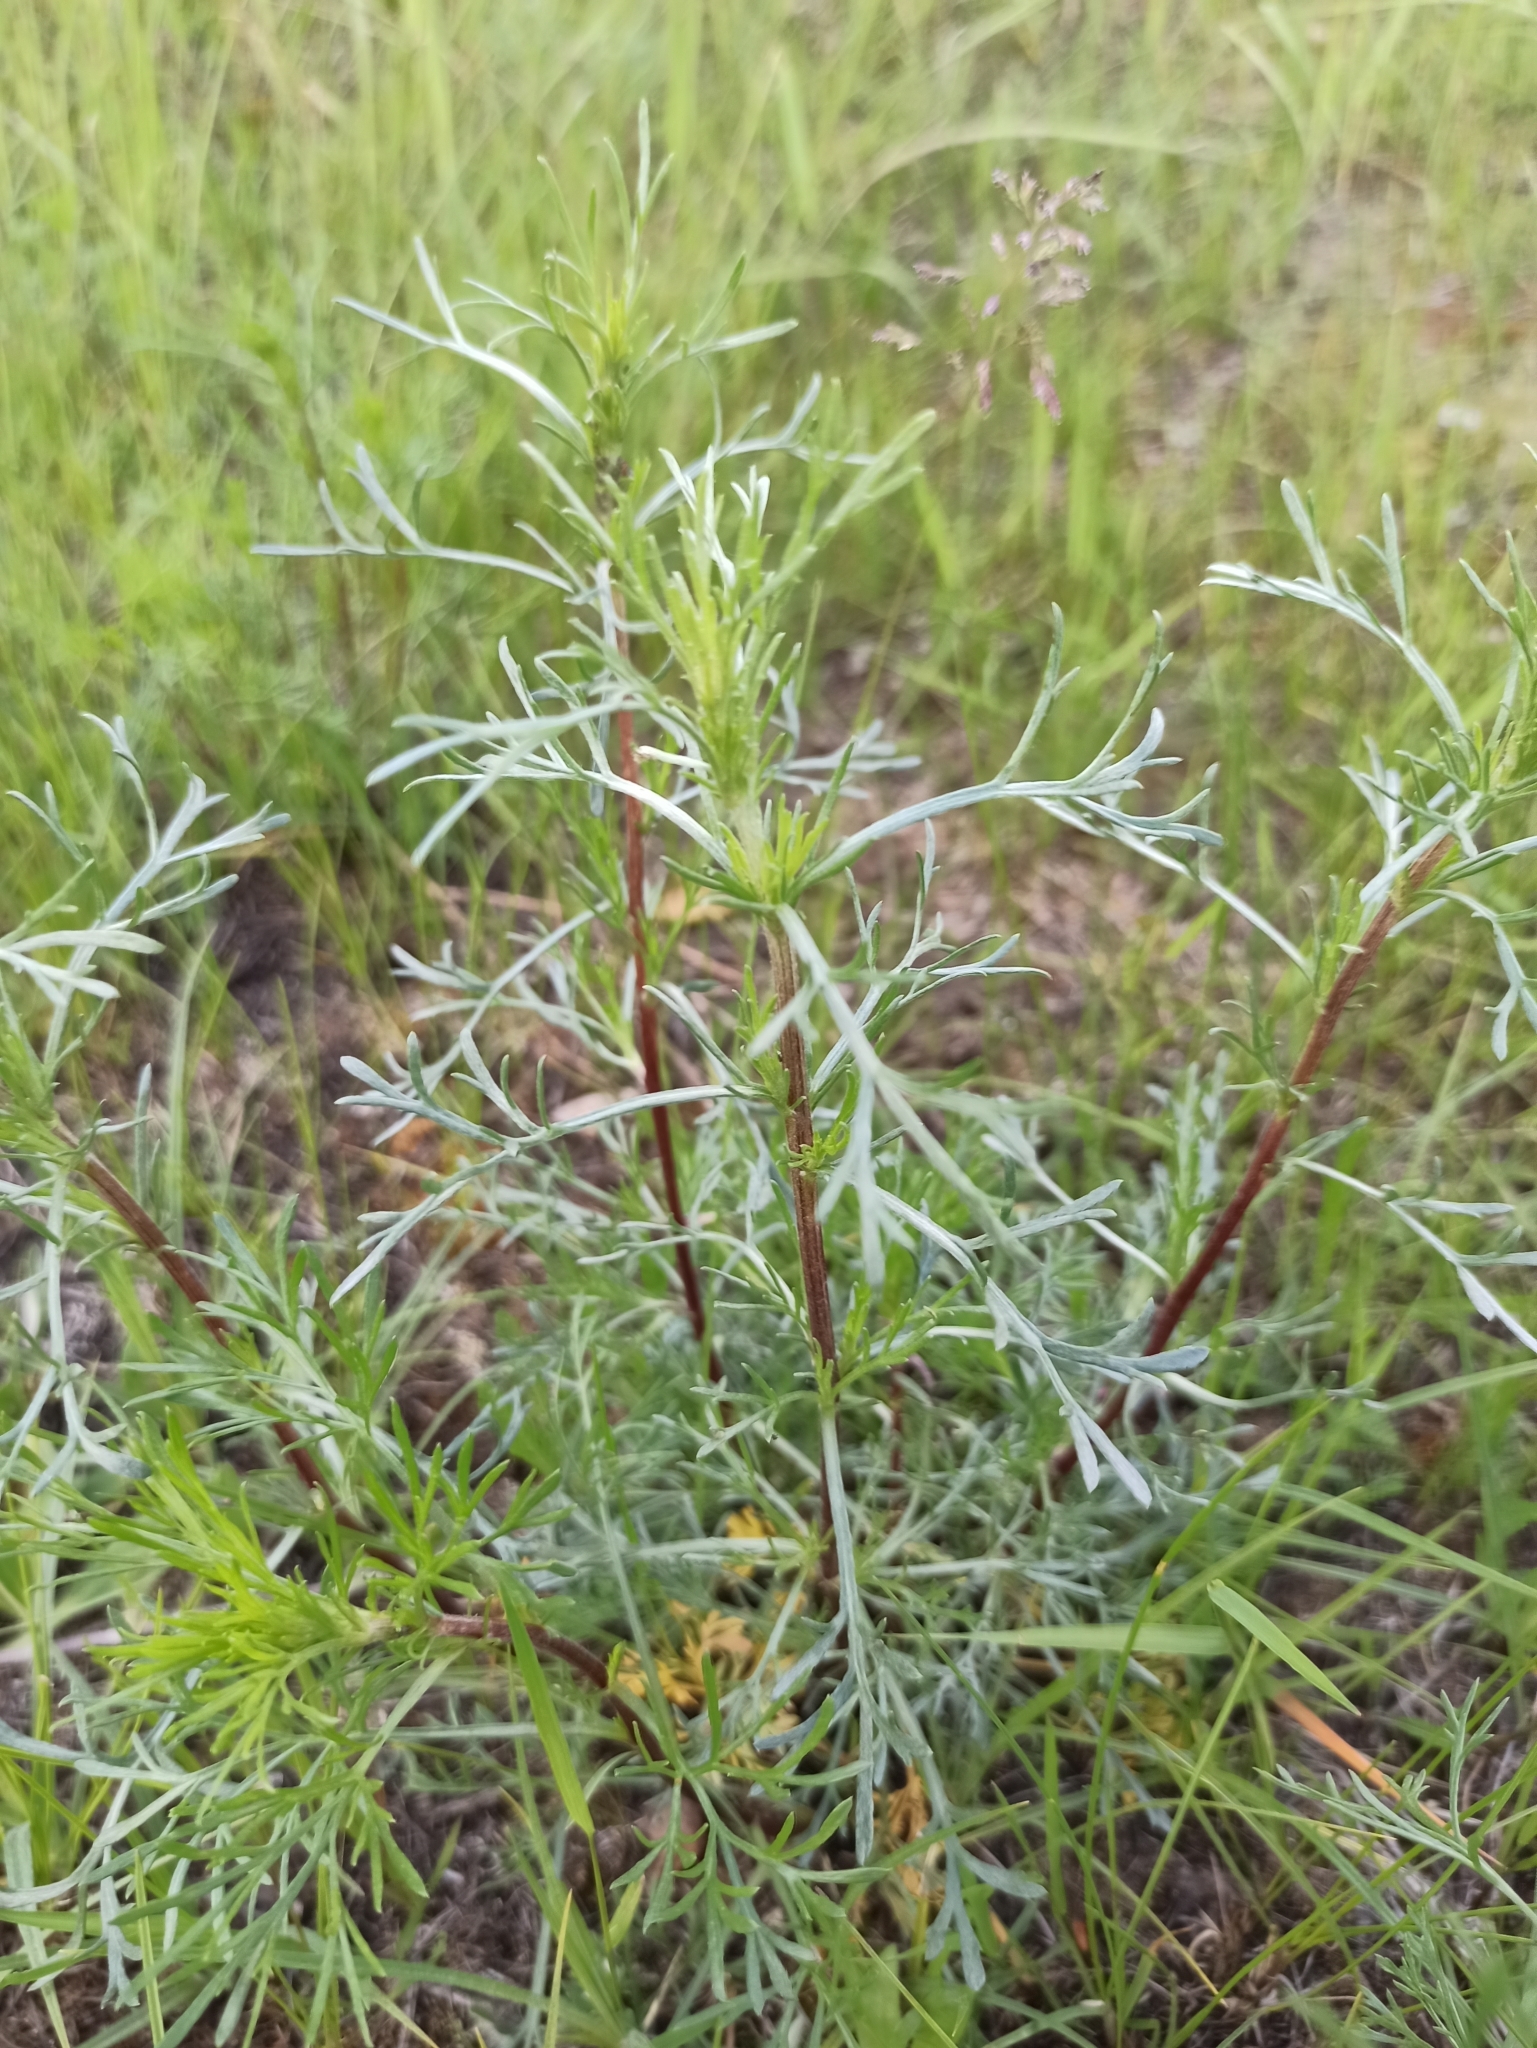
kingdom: Plantae
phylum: Tracheophyta
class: Magnoliopsida
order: Asterales
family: Asteraceae
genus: Artemisia
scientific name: Artemisia campestris
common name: Field wormwood
